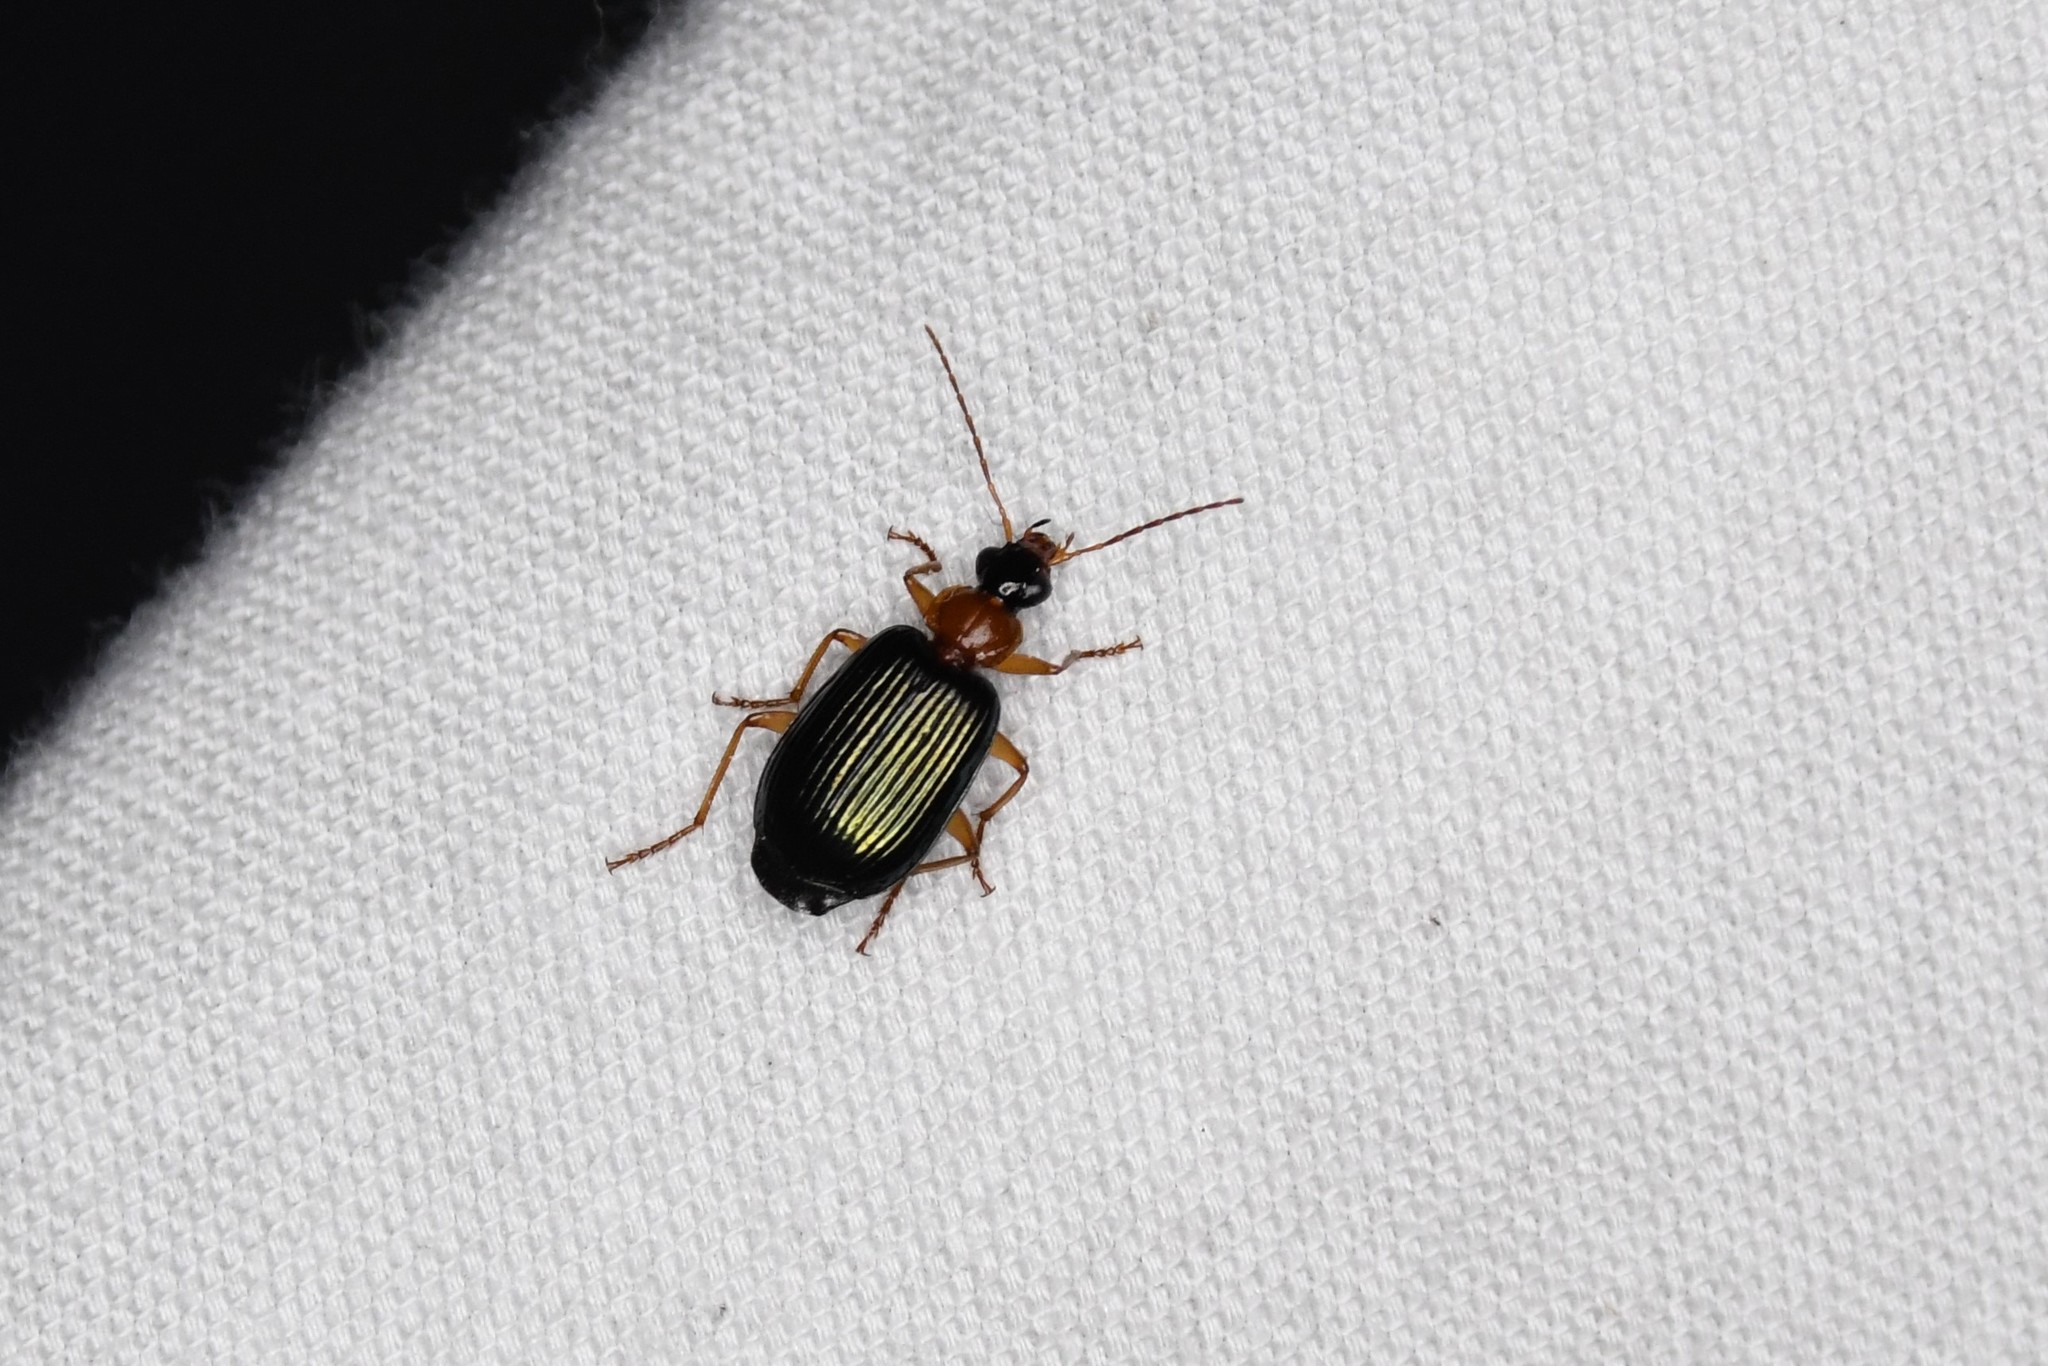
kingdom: Animalia
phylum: Arthropoda
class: Insecta
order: Coleoptera
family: Carabidae
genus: Lebia
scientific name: Lebia tricolor
